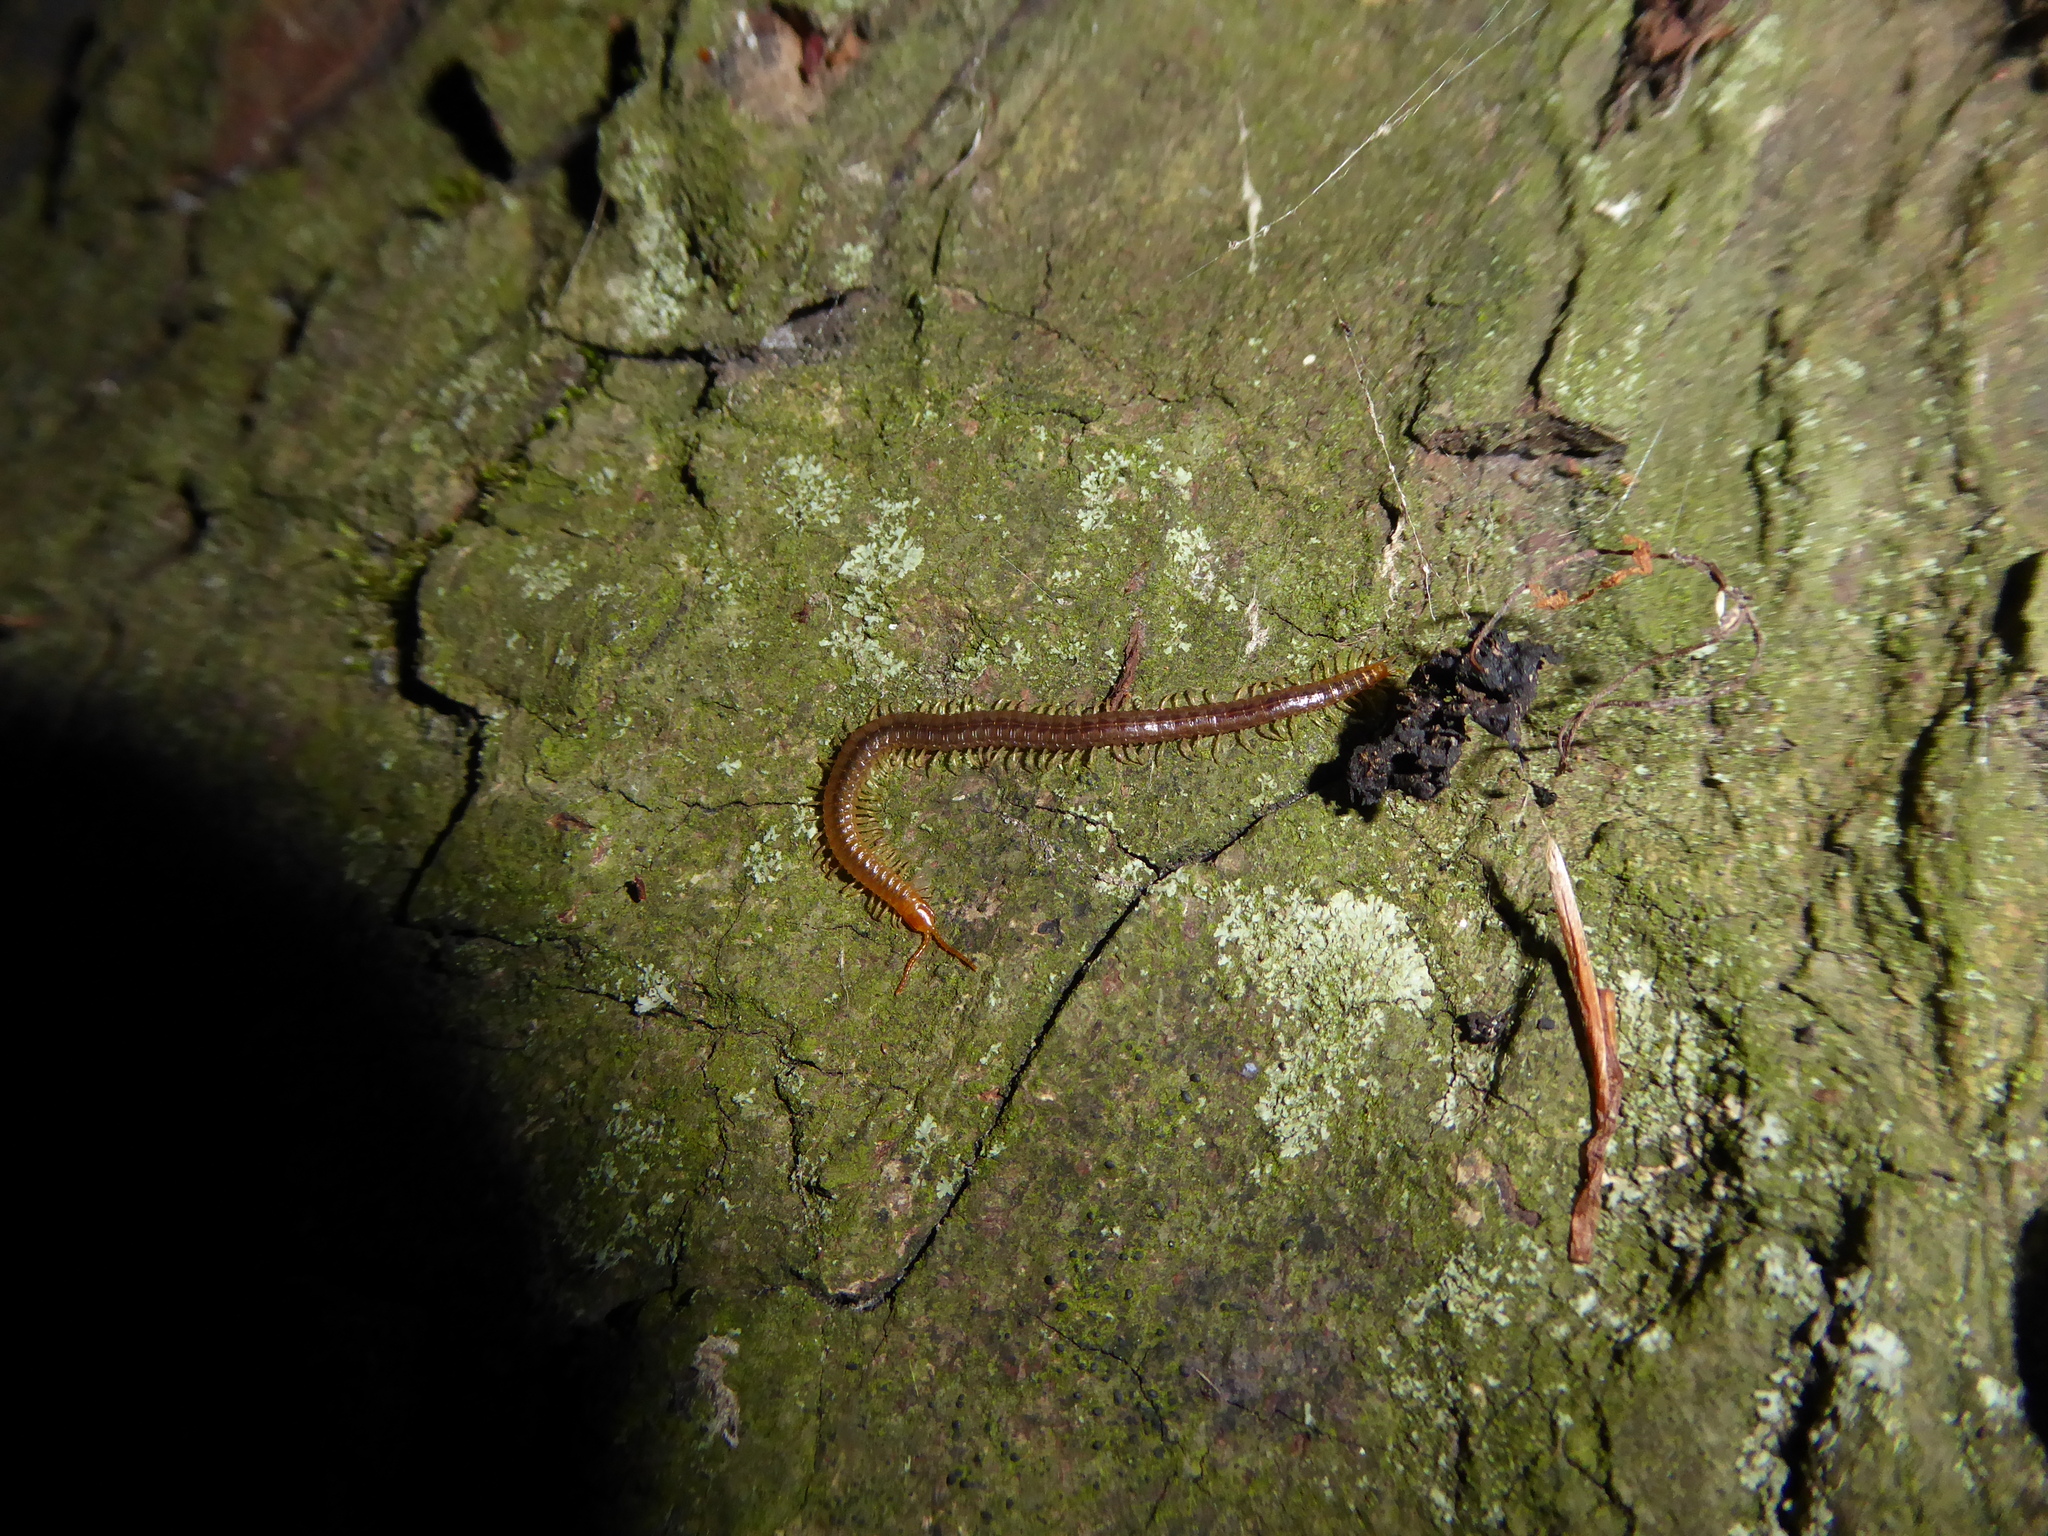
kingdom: Animalia
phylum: Arthropoda
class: Chilopoda
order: Geophilomorpha
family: Geophilidae
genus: Geophilus
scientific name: Geophilus carpophagus
